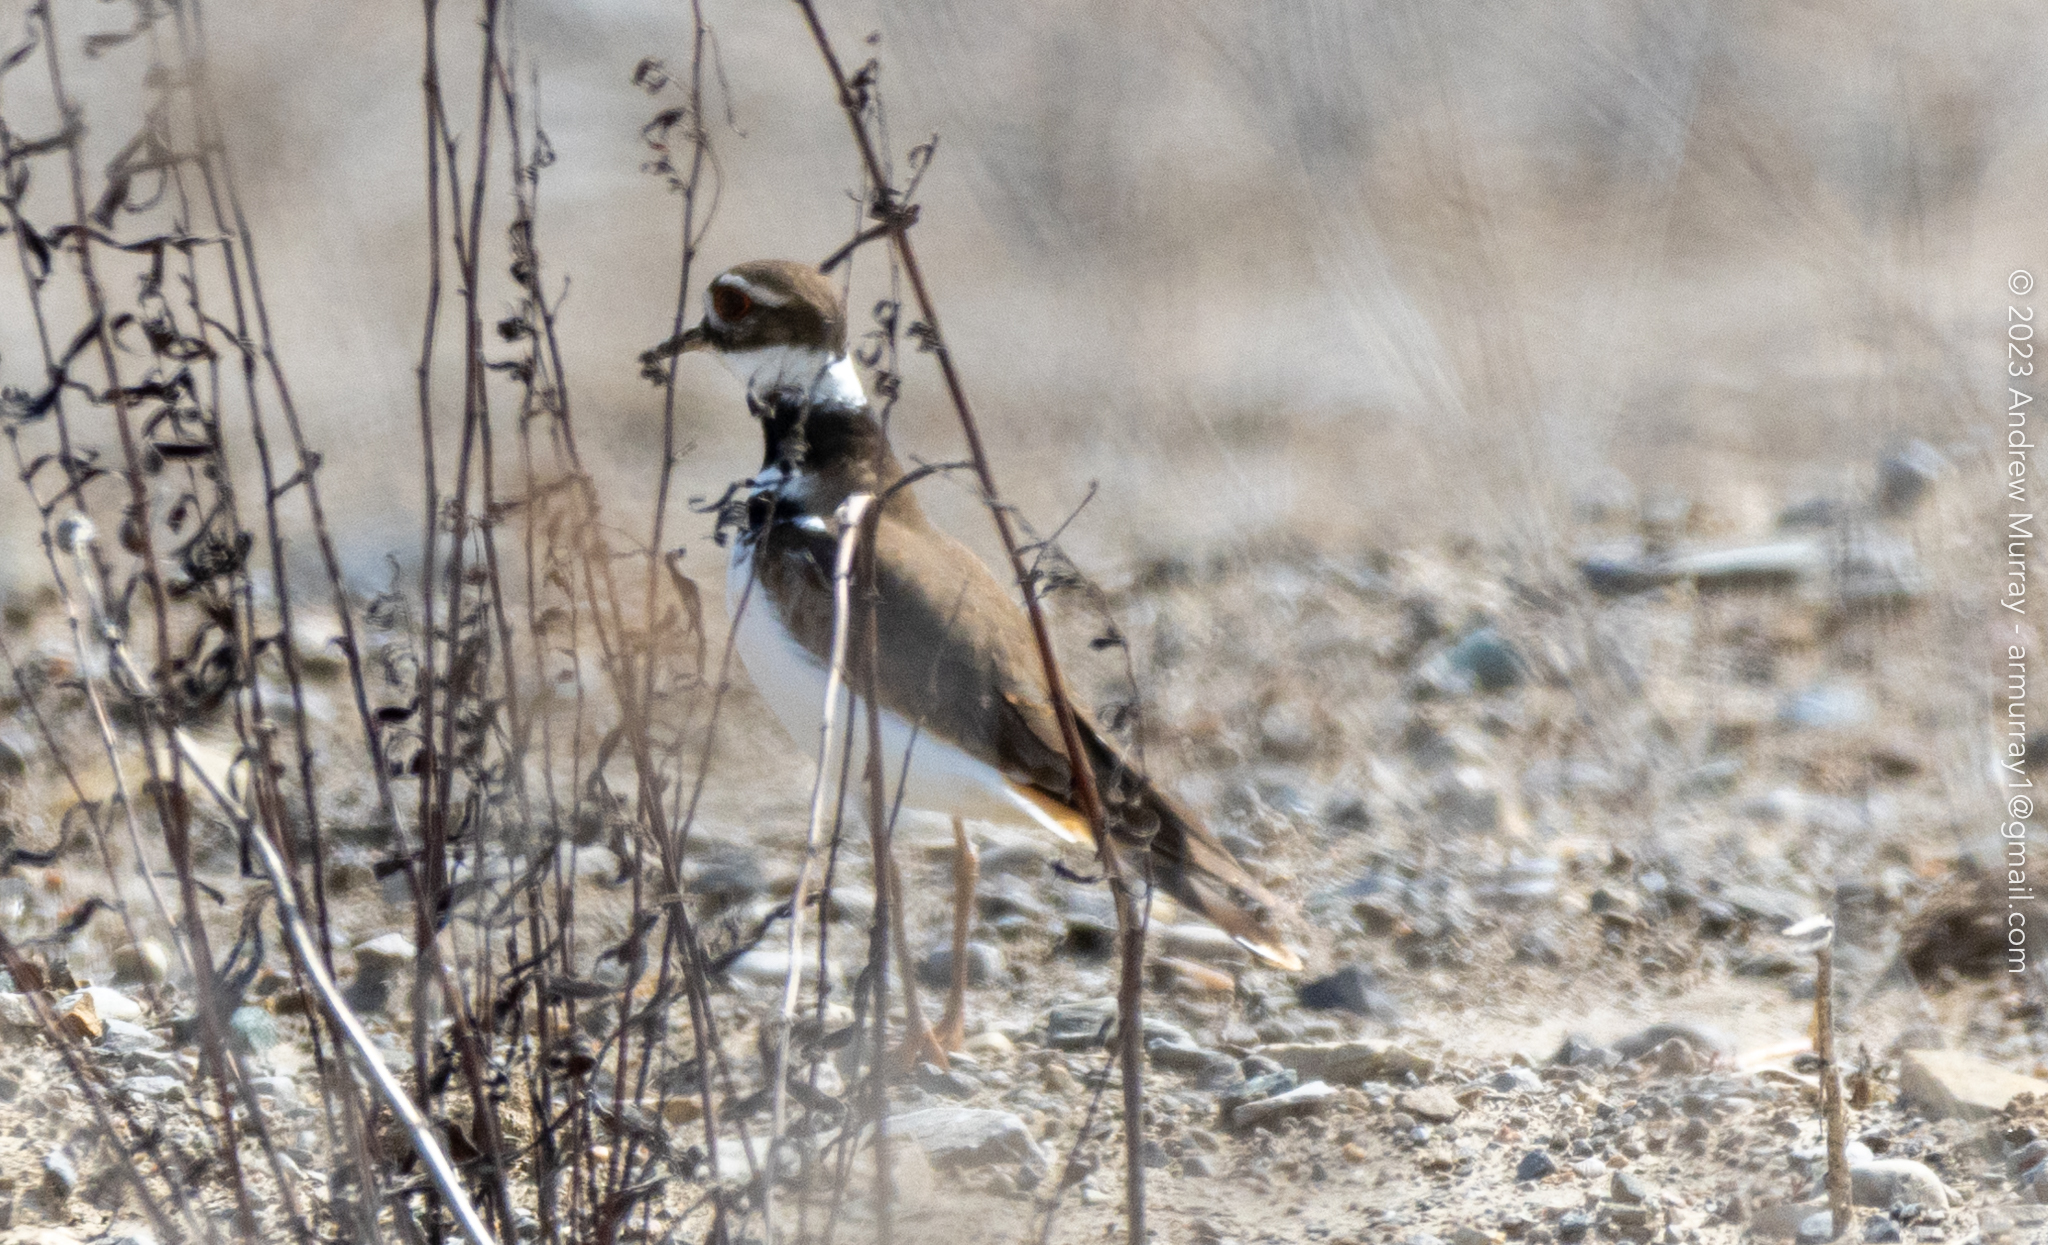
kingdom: Animalia
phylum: Chordata
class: Aves
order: Charadriiformes
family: Charadriidae
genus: Charadrius
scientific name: Charadrius vociferus
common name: Killdeer
